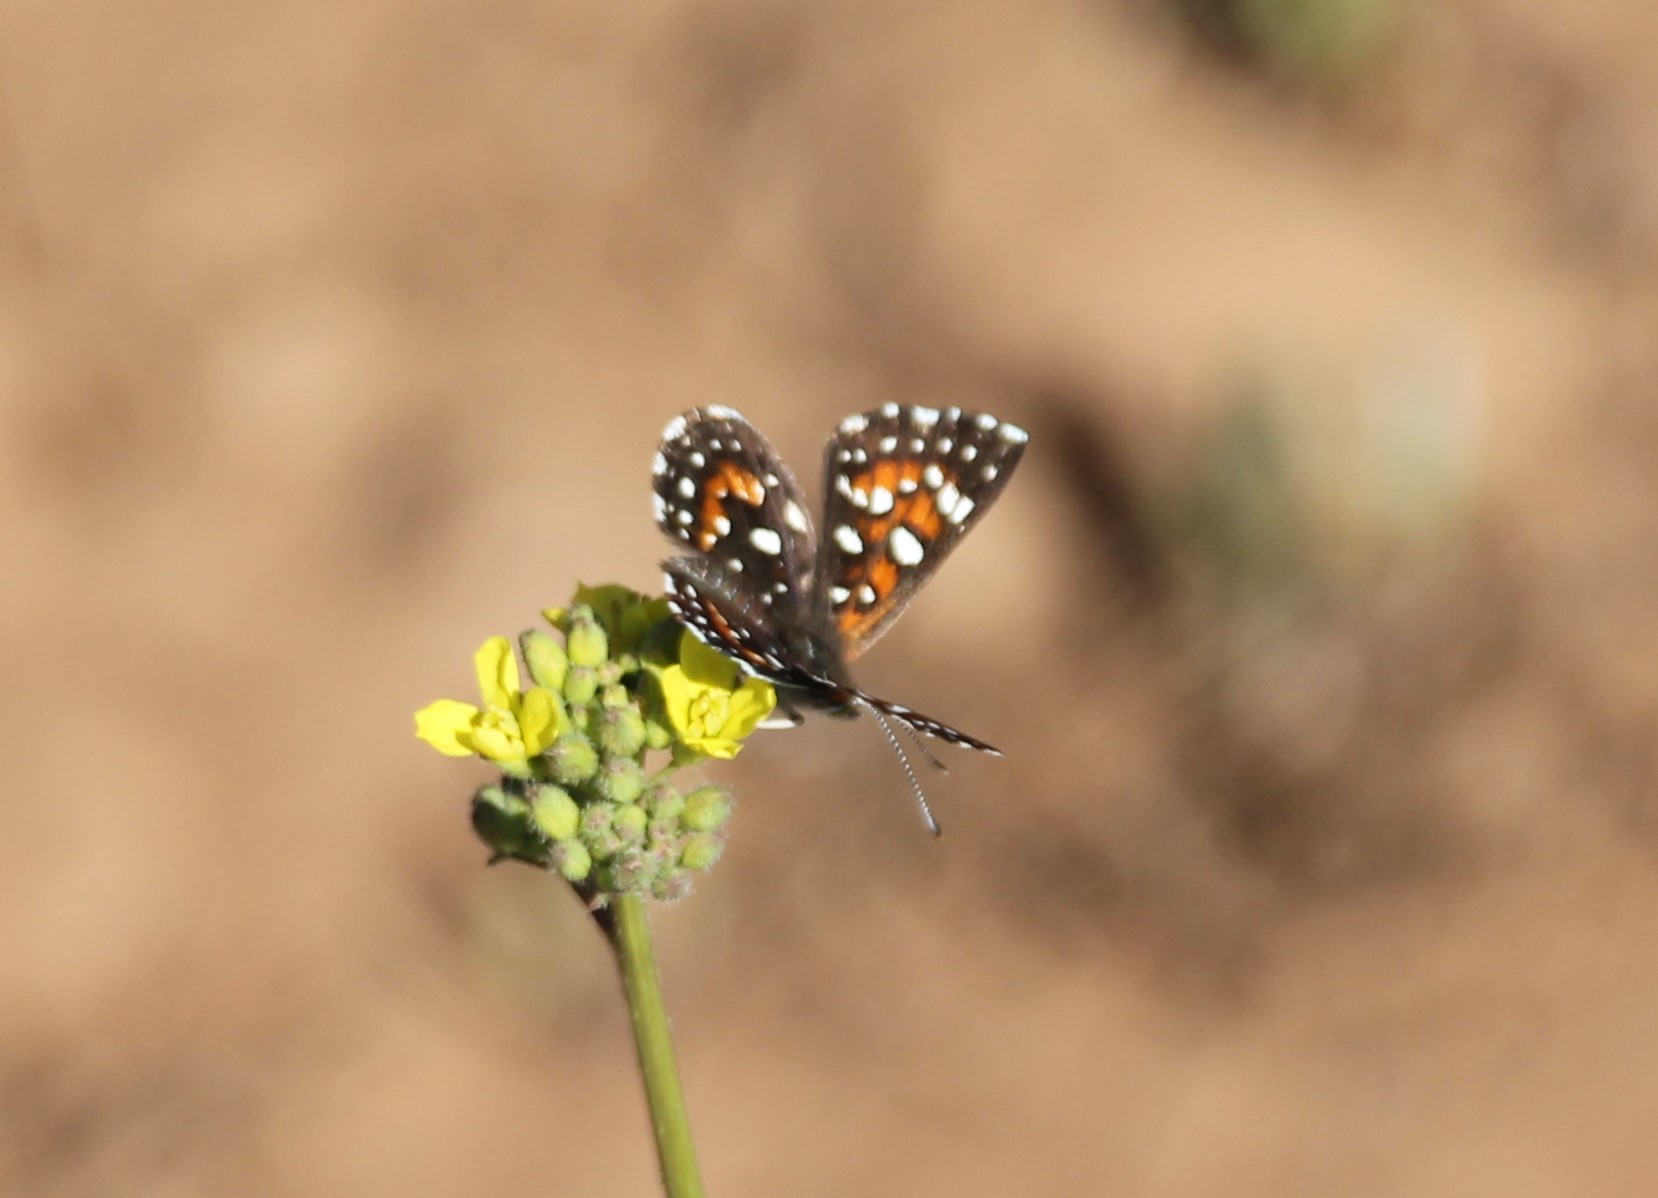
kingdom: Animalia
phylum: Arthropoda
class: Insecta
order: Lepidoptera
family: Riodinidae
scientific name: Riodinidae
